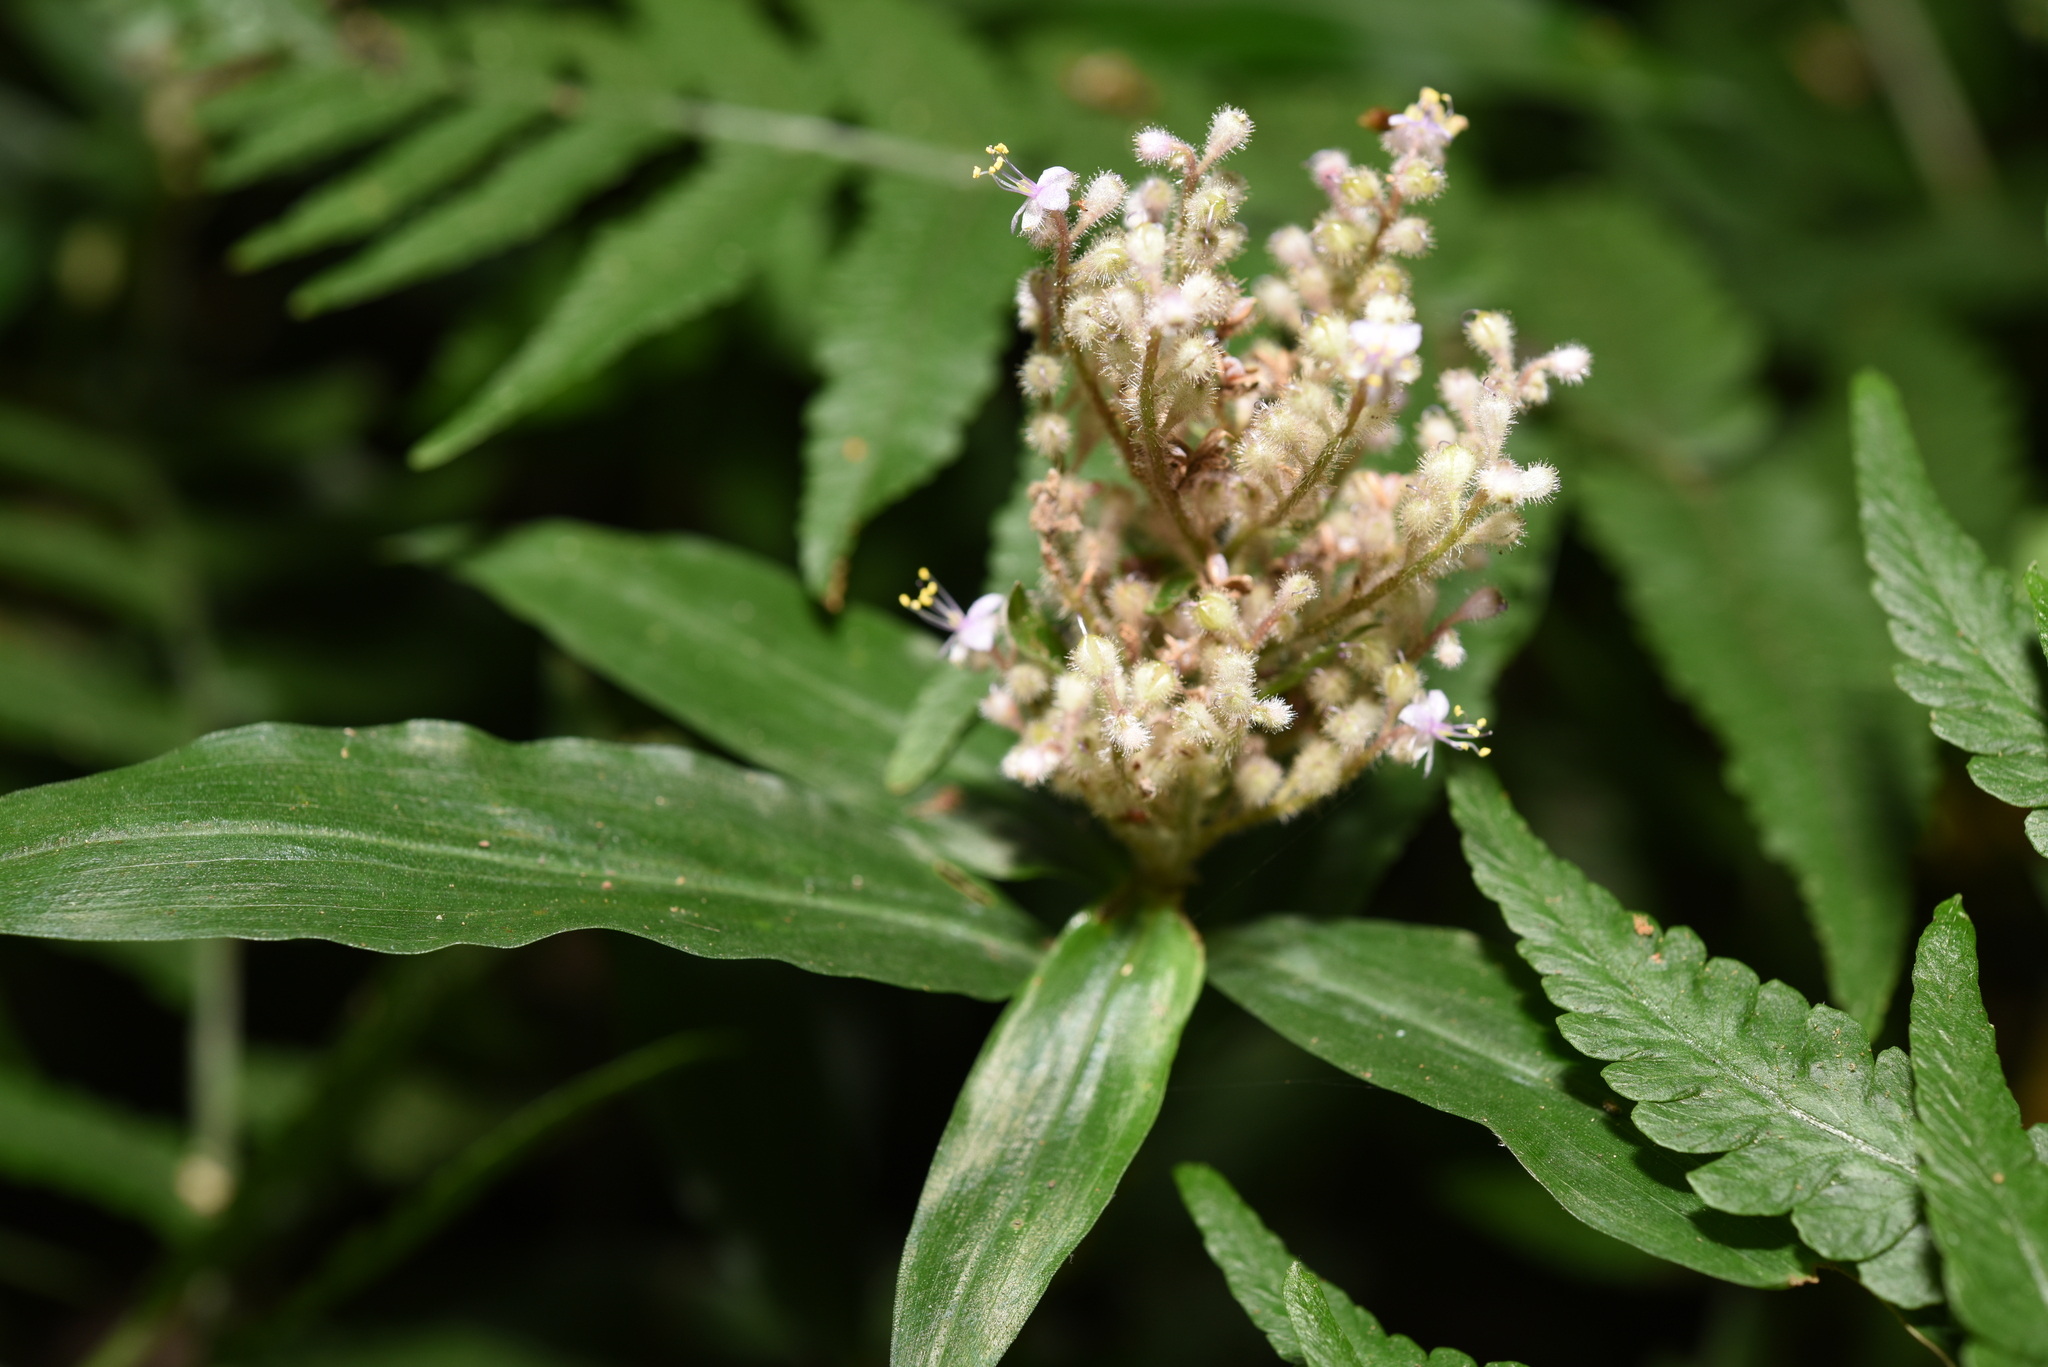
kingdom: Plantae
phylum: Tracheophyta
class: Liliopsida
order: Commelinales
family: Commelinaceae
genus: Floscopa
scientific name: Floscopa scandens
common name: Climbing flower cup
